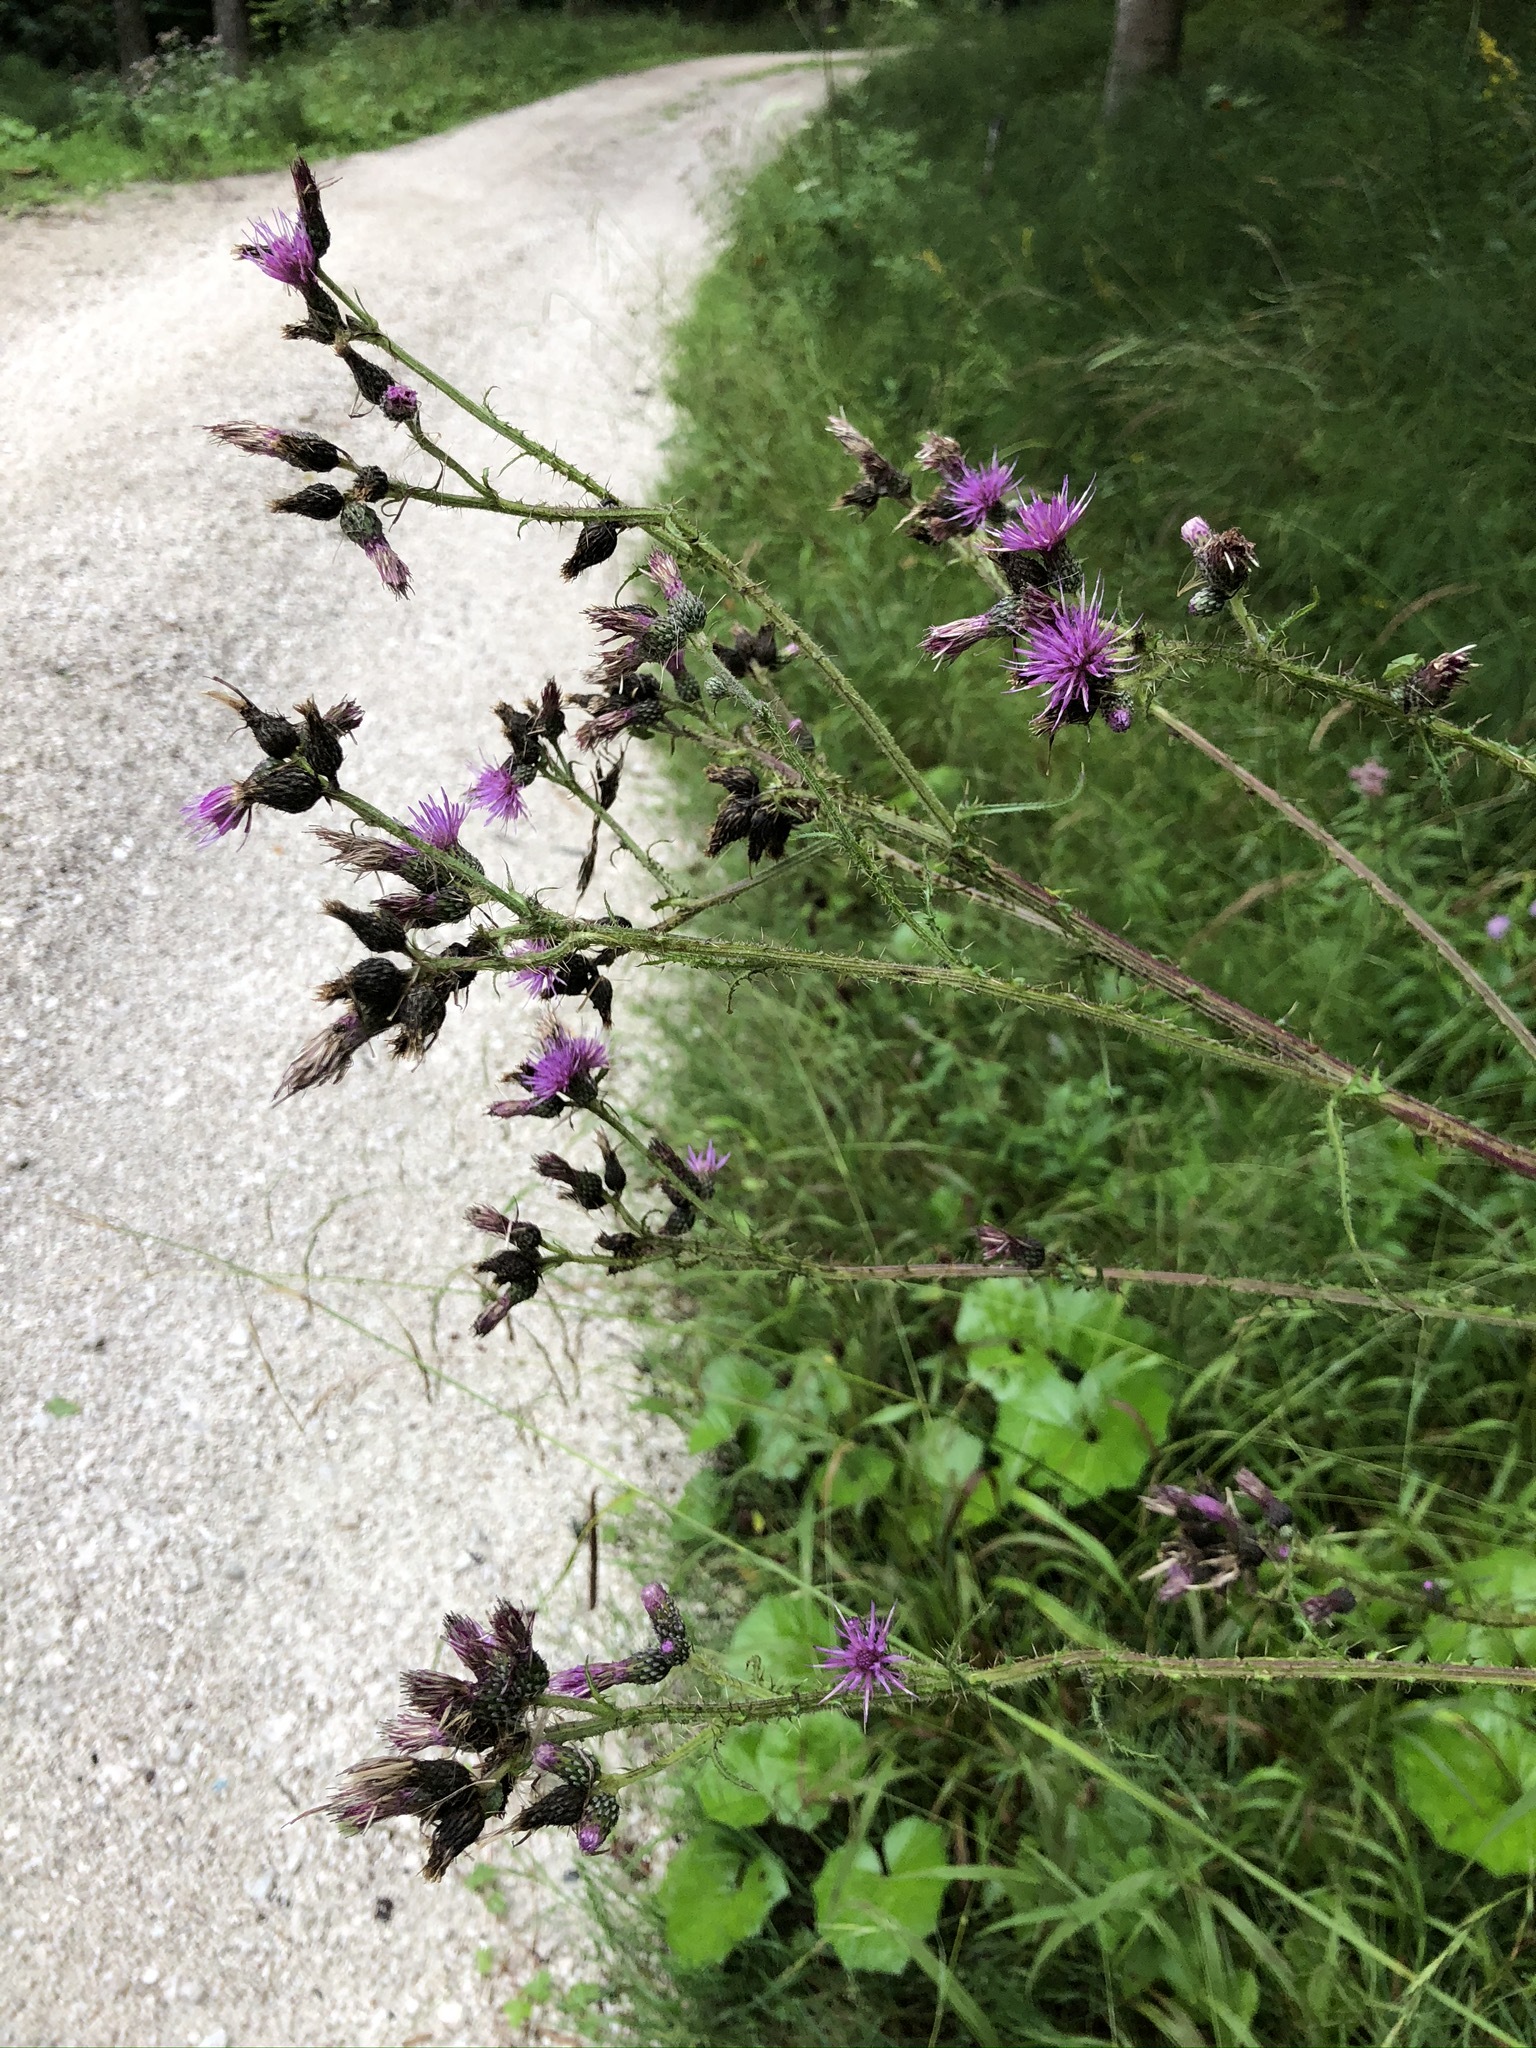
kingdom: Plantae
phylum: Tracheophyta
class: Magnoliopsida
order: Asterales
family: Asteraceae
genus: Cirsium
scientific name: Cirsium palustre
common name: Marsh thistle
